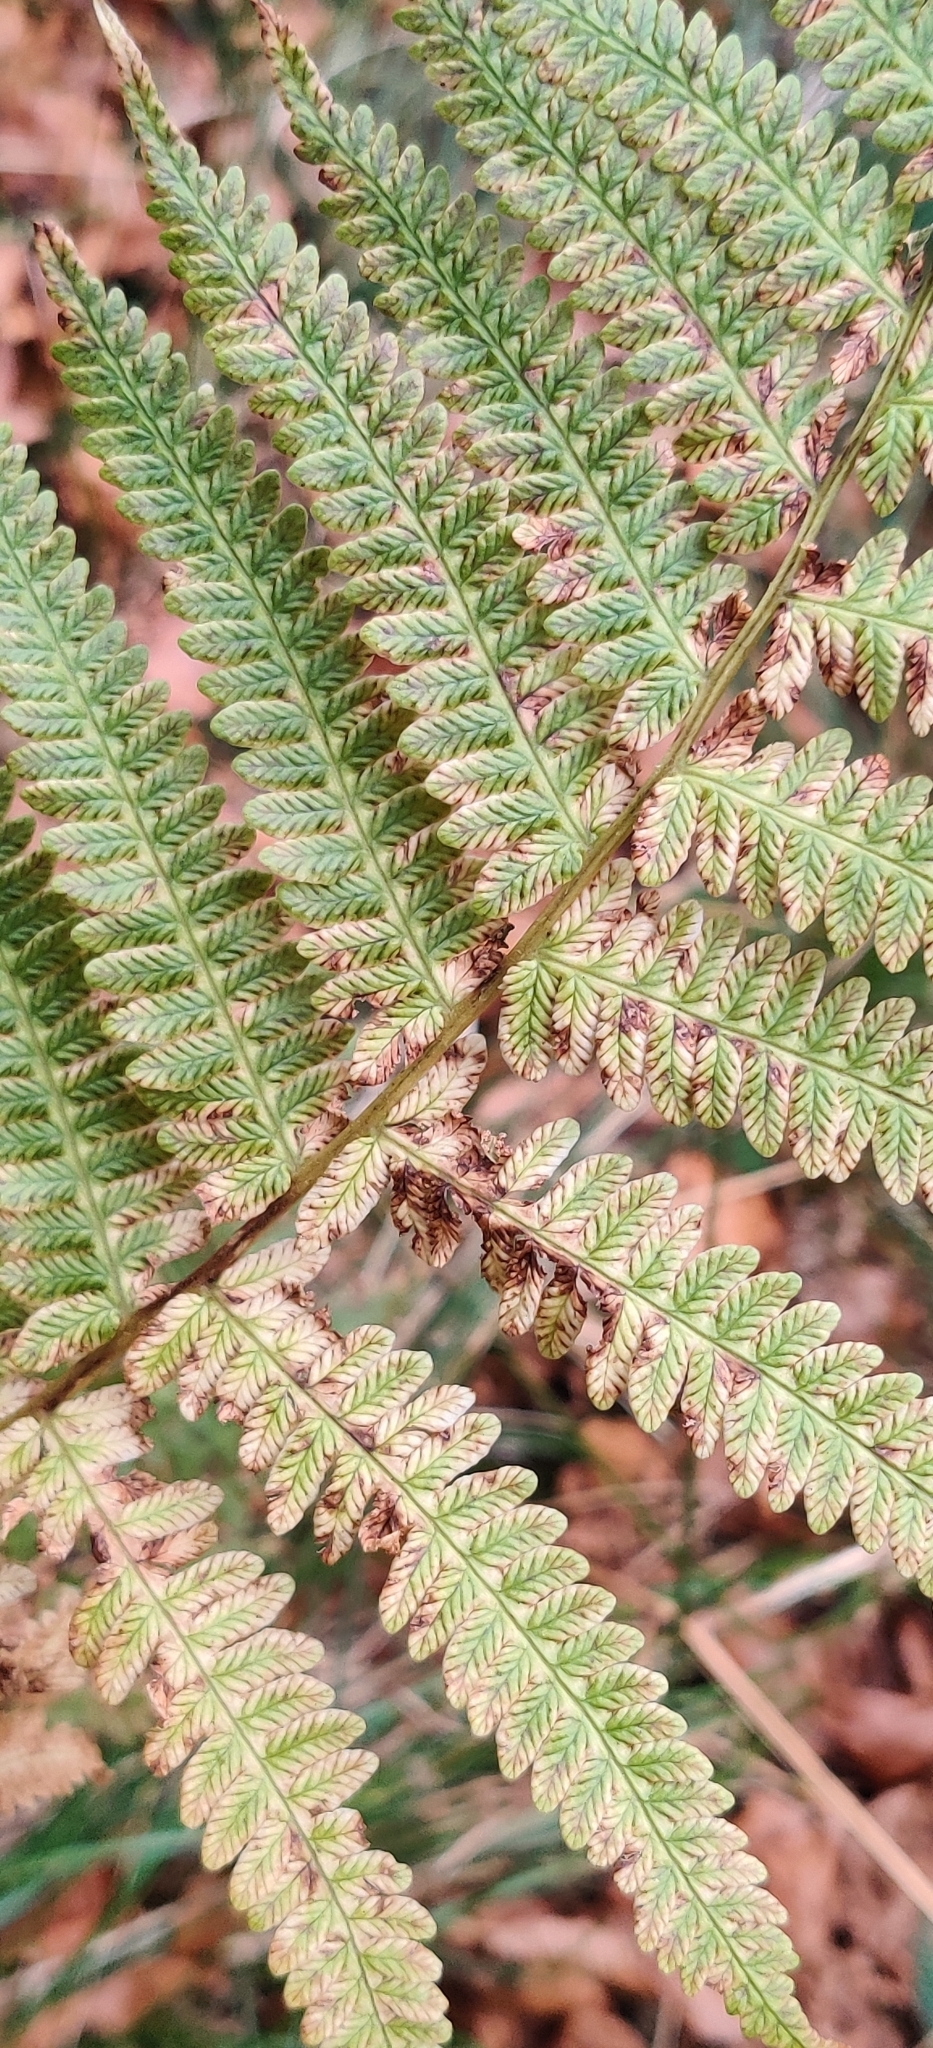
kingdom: Plantae
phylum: Tracheophyta
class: Polypodiopsida
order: Polypodiales
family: Thelypteridaceae
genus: Oreopteris
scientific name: Oreopteris limbosperma
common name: Lemon-scented fern
